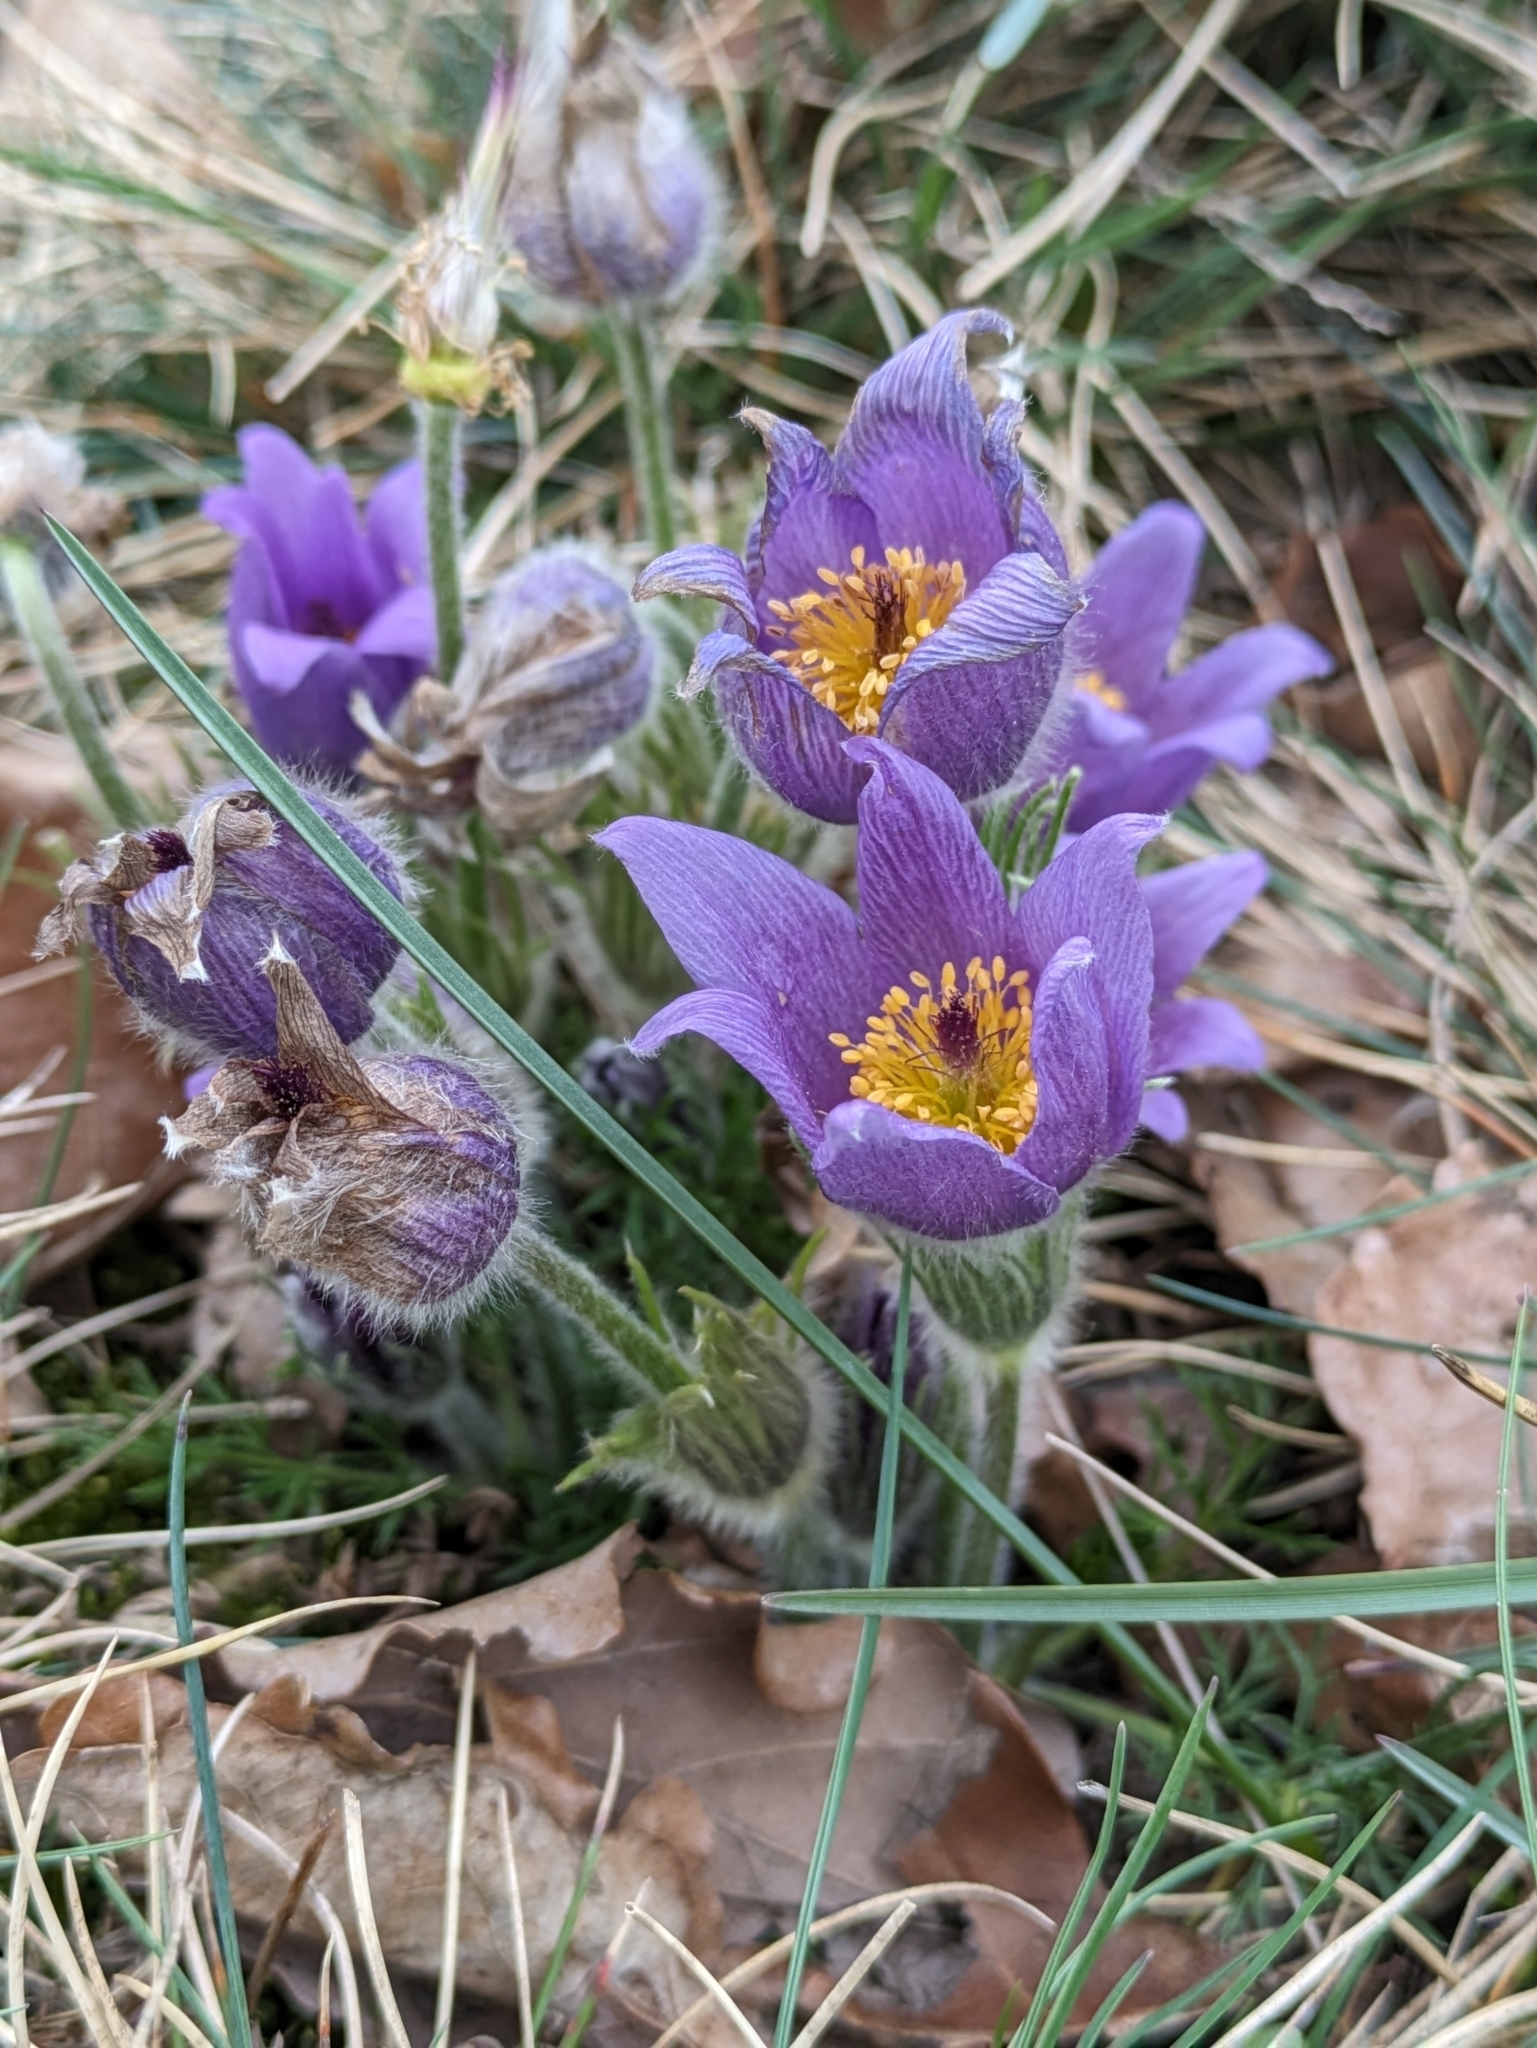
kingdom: Plantae
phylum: Tracheophyta
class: Magnoliopsida
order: Ranunculales
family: Ranunculaceae
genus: Pulsatilla
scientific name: Pulsatilla vulgaris
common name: Pasqueflower
